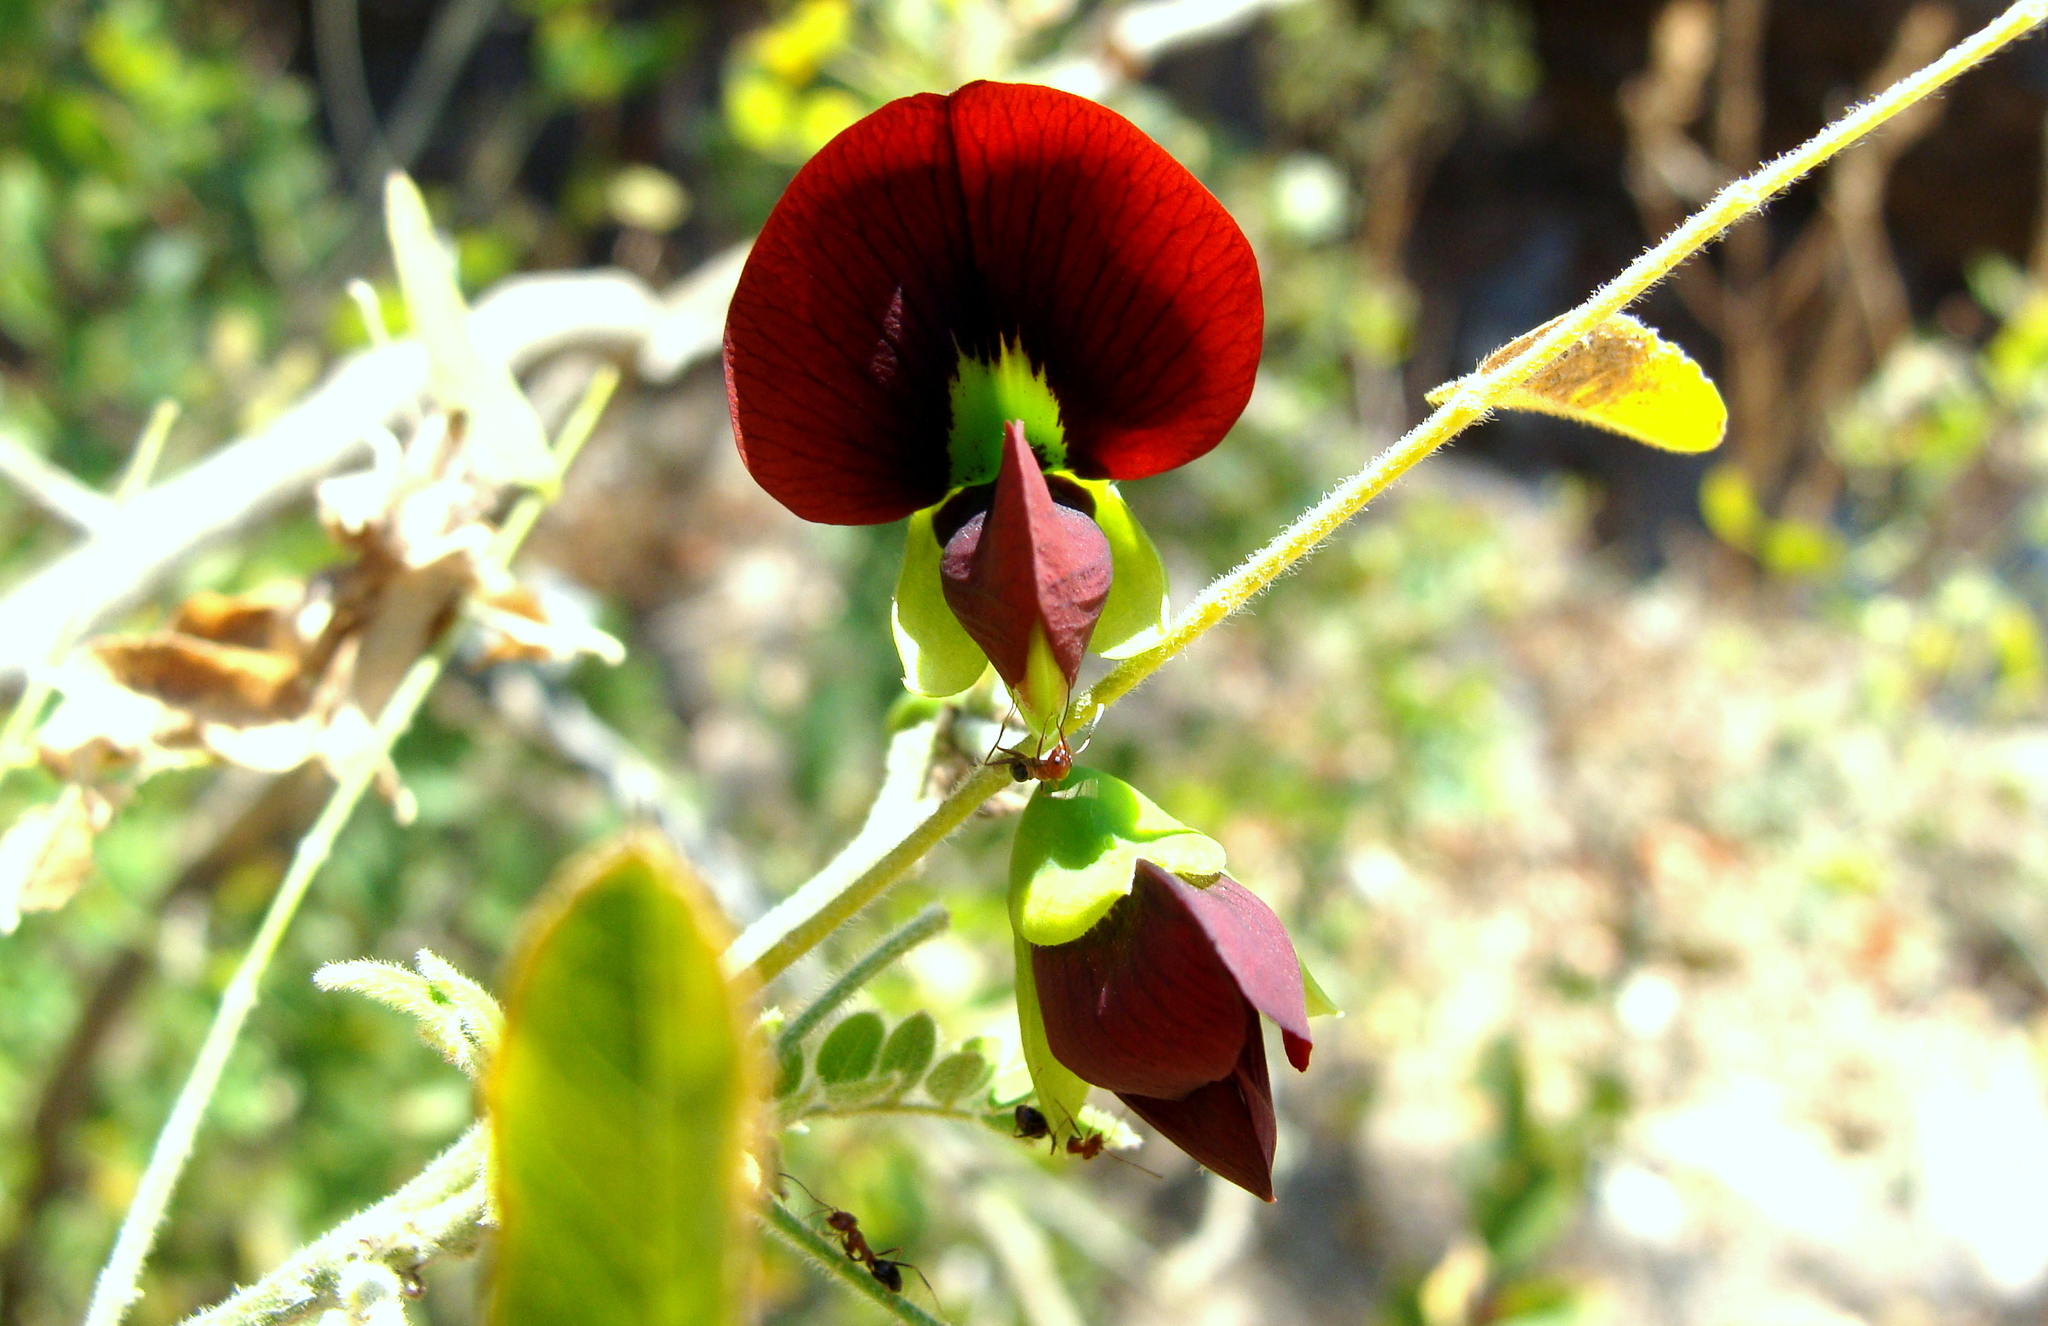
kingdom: Plantae
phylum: Tracheophyta
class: Magnoliopsida
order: Fabales
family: Fabaceae
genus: Brongniartia
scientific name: Brongniartia foliolosa
